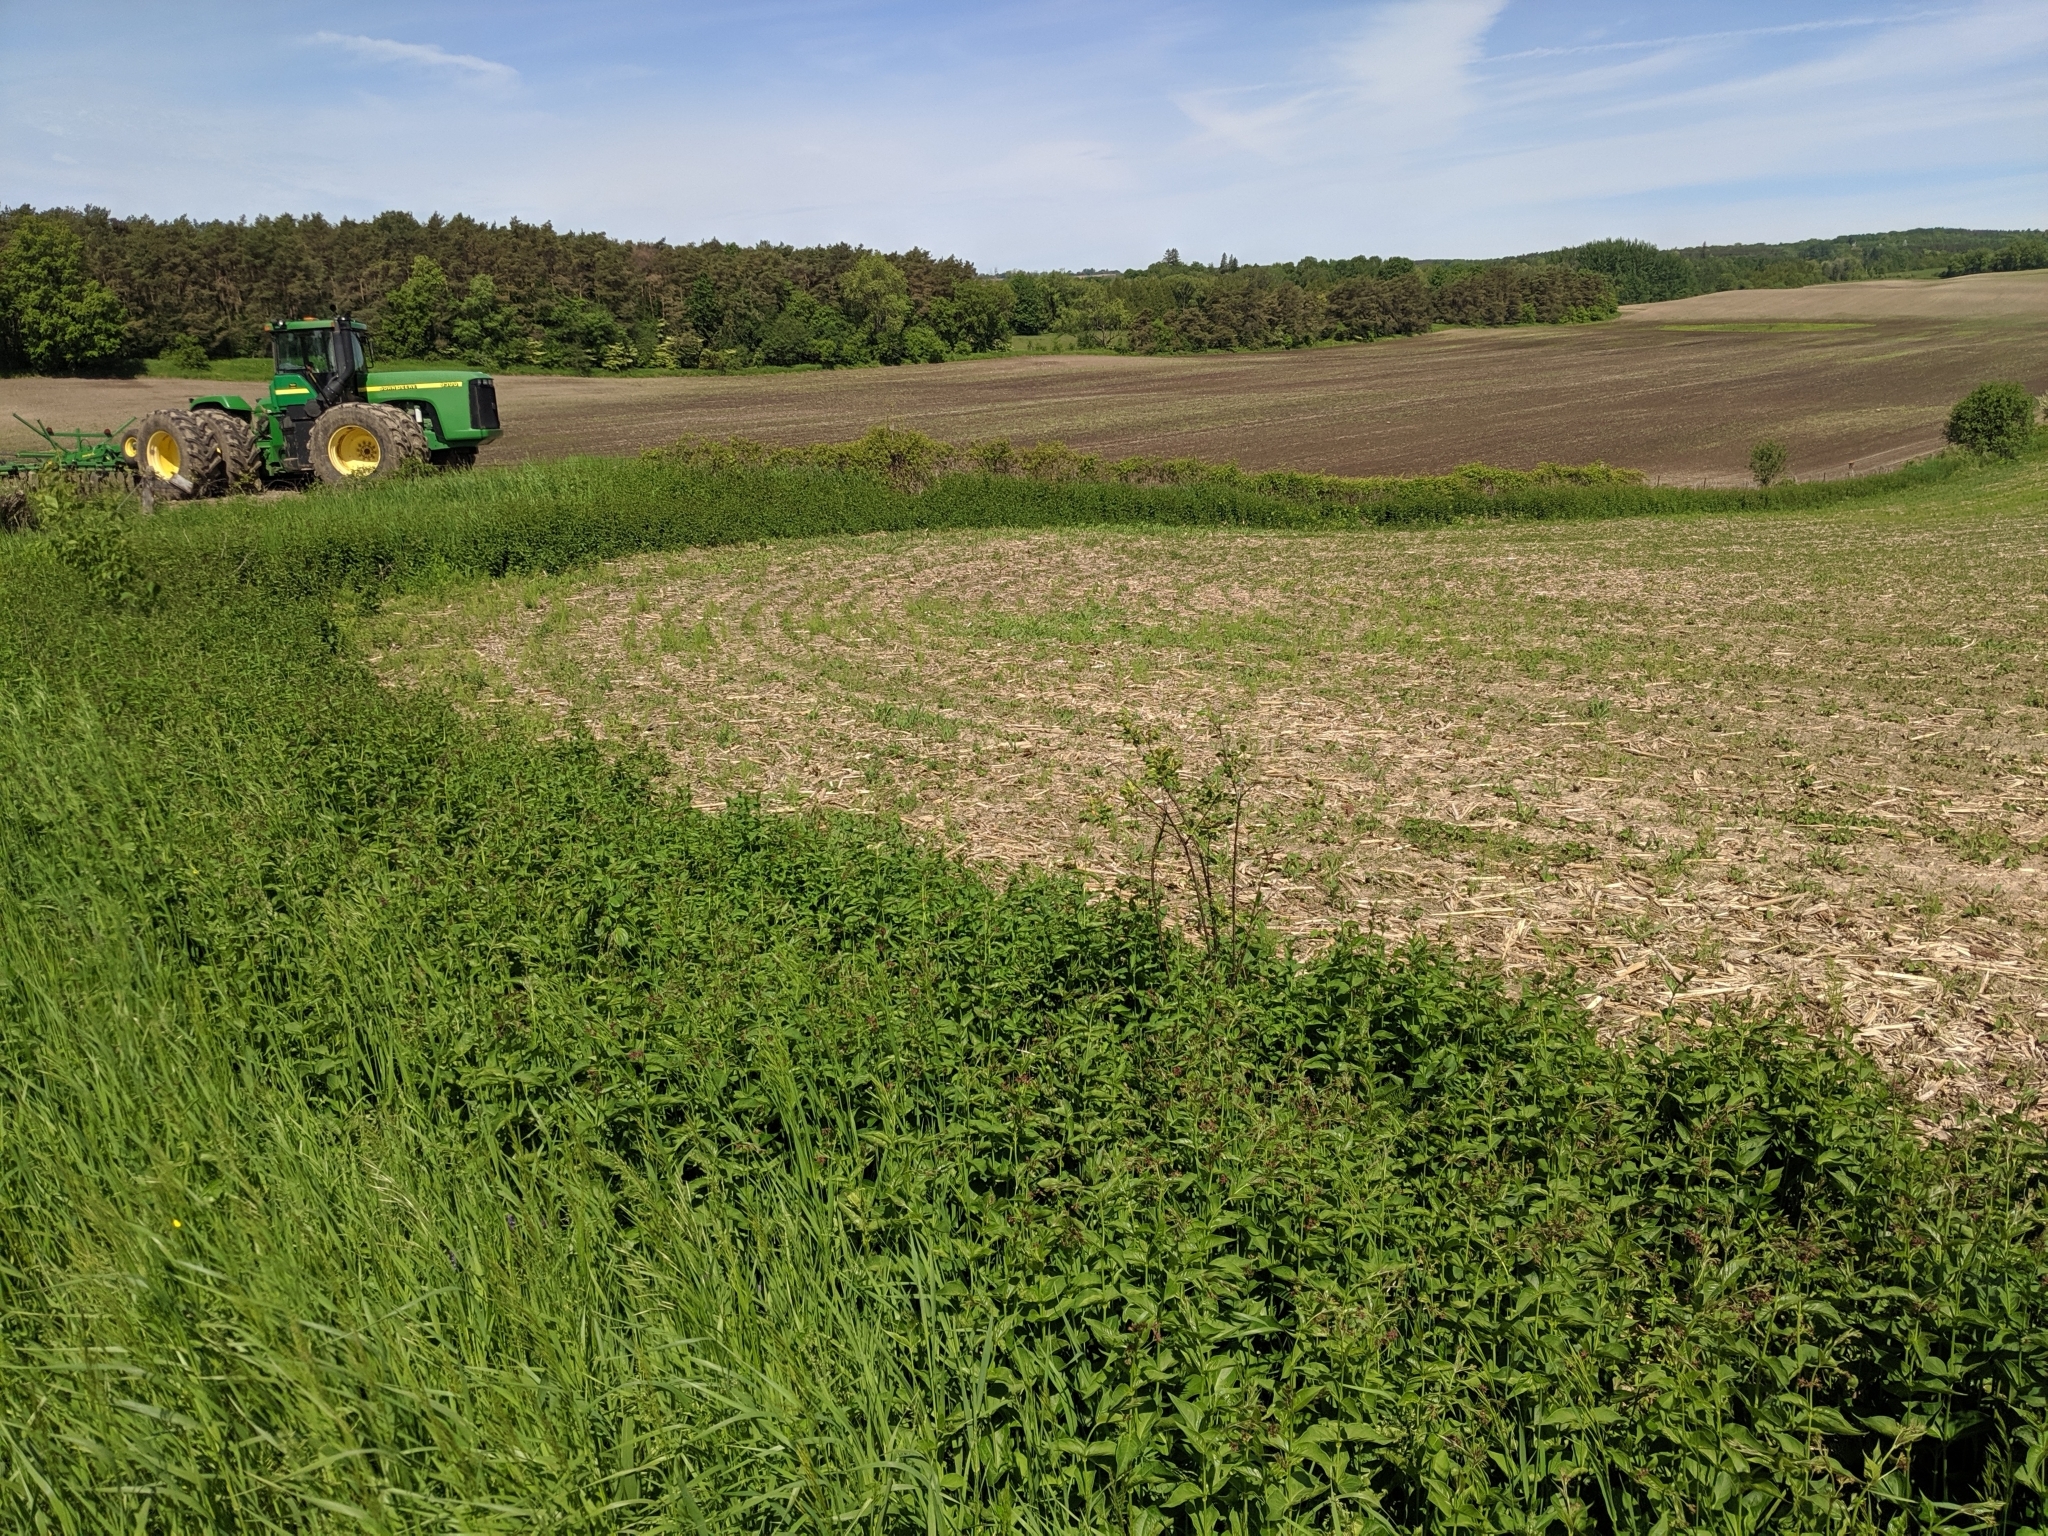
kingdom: Plantae
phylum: Tracheophyta
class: Magnoliopsida
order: Gentianales
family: Apocynaceae
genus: Vincetoxicum
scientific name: Vincetoxicum rossicum
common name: Dog-strangling vine
